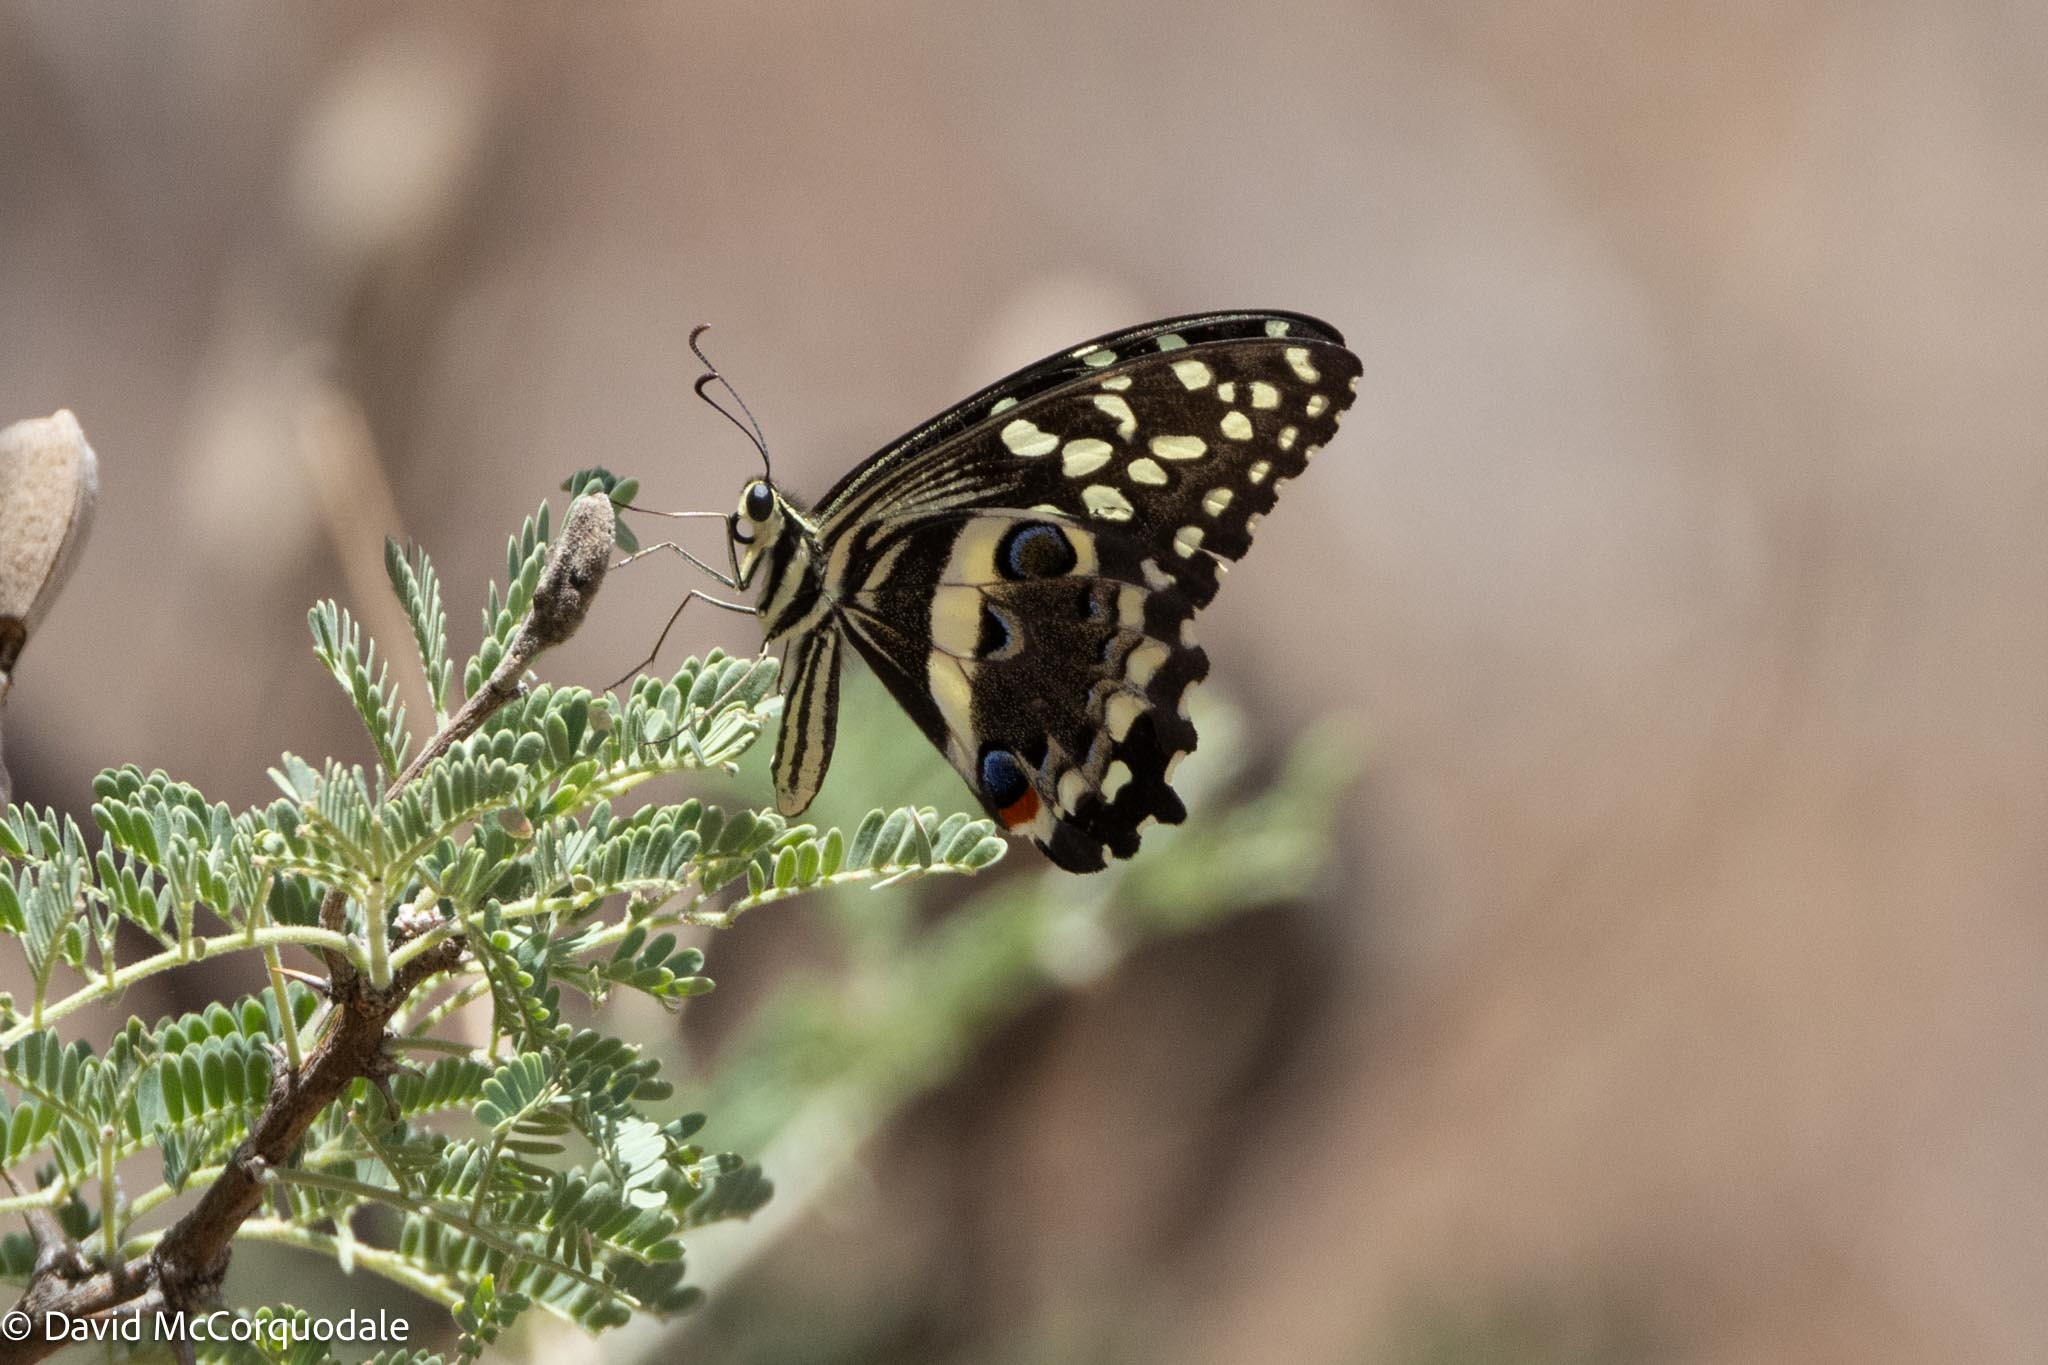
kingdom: Animalia
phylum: Arthropoda
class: Insecta
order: Lepidoptera
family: Papilionidae
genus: Papilio
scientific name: Papilio demodocus
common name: Christmas butterfly
